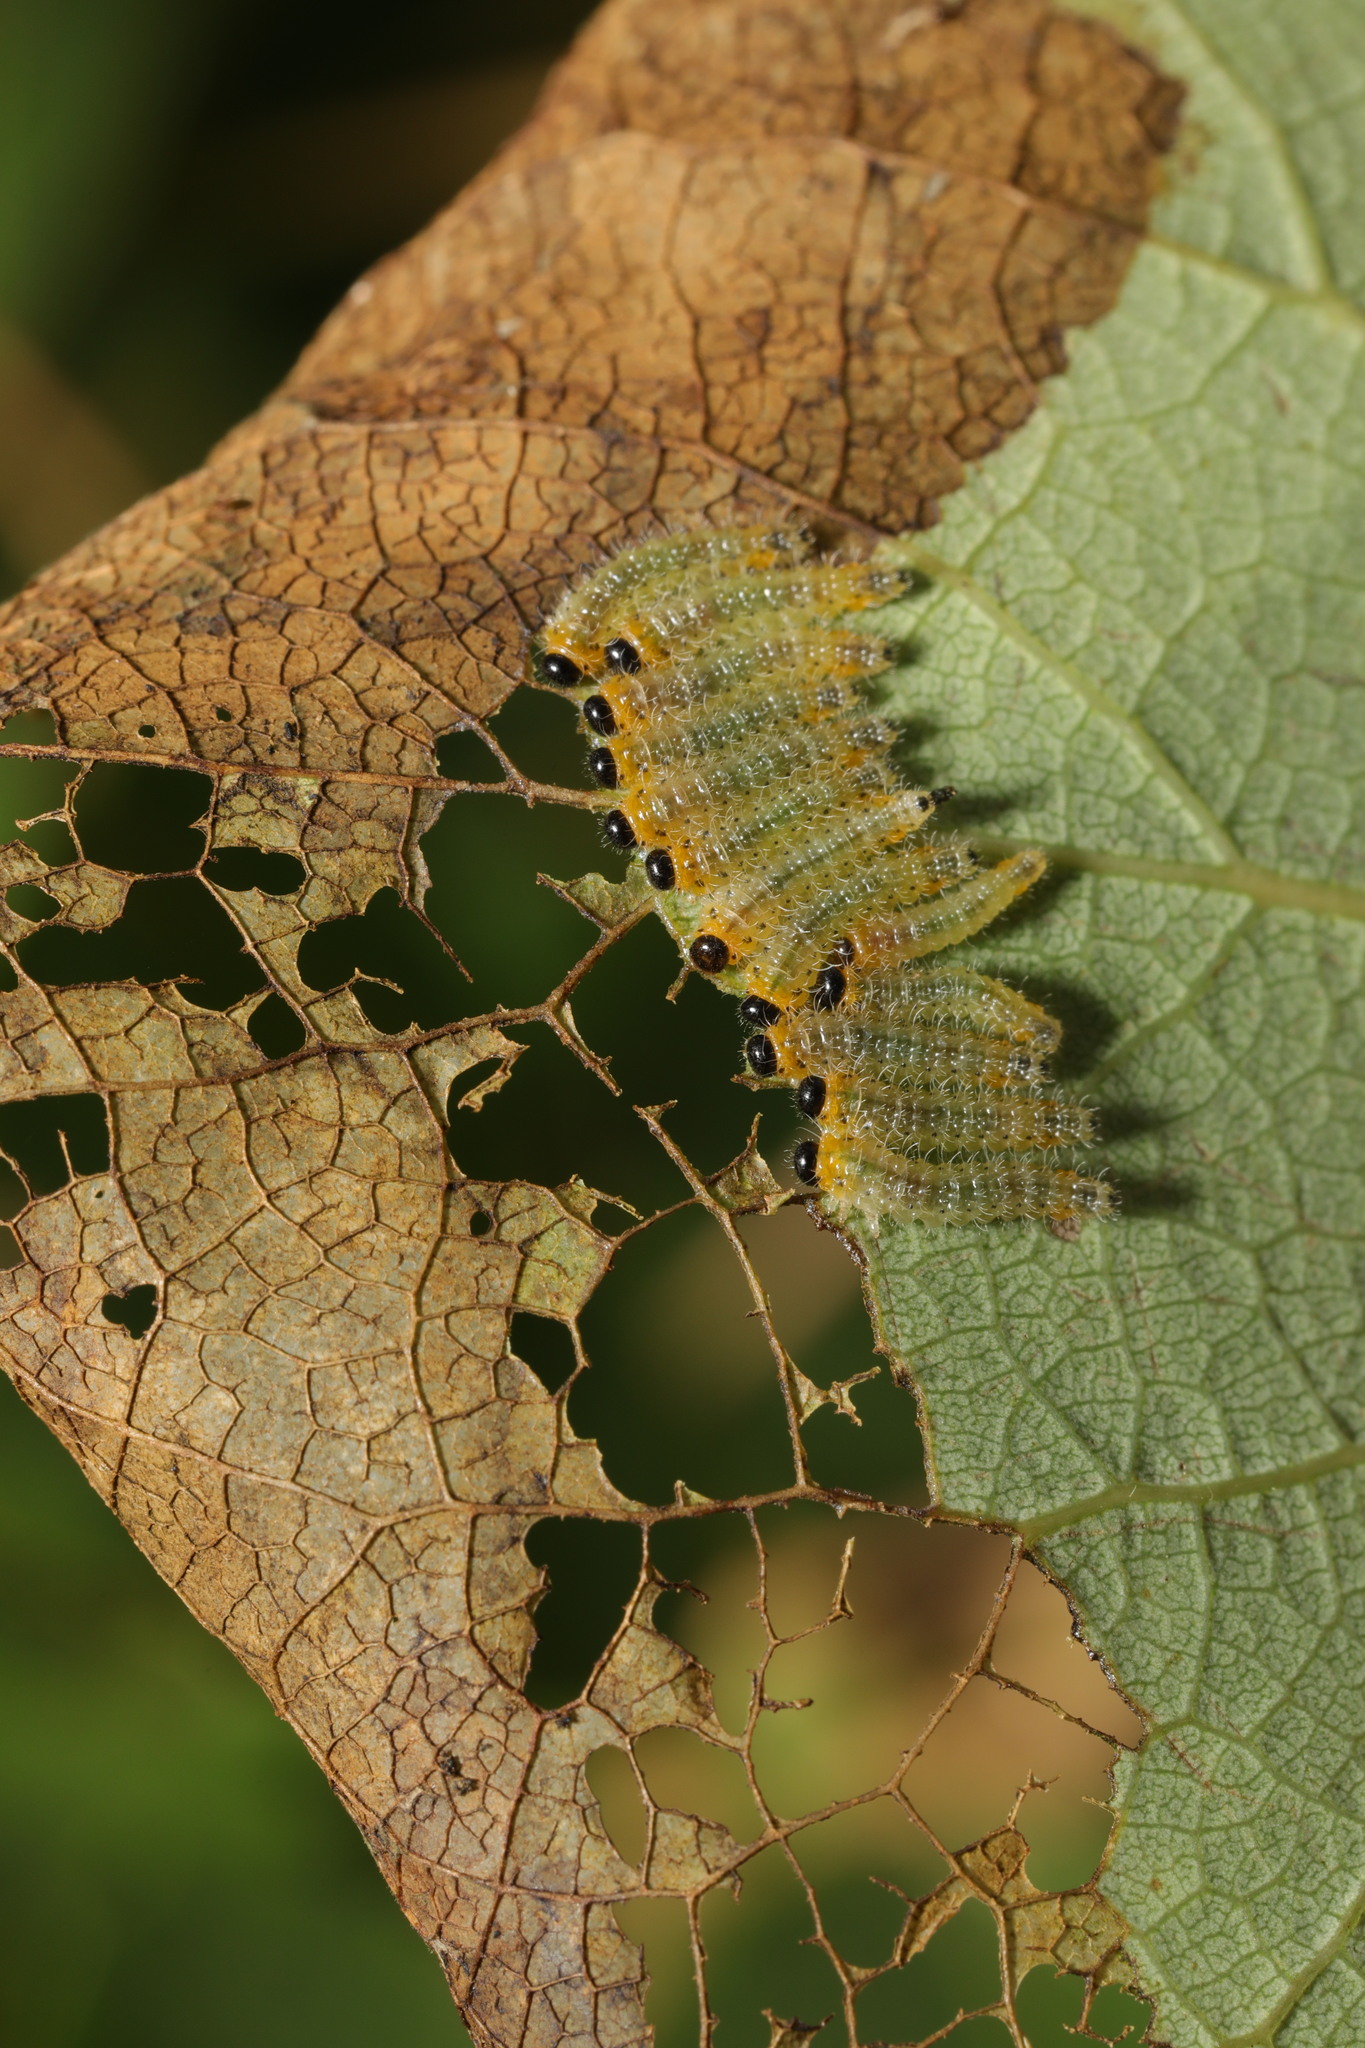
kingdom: Animalia
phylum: Arthropoda
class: Insecta
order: Hymenoptera
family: Tenthredinidae
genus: Cladius
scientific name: Cladius grandis
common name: Common sawfly
